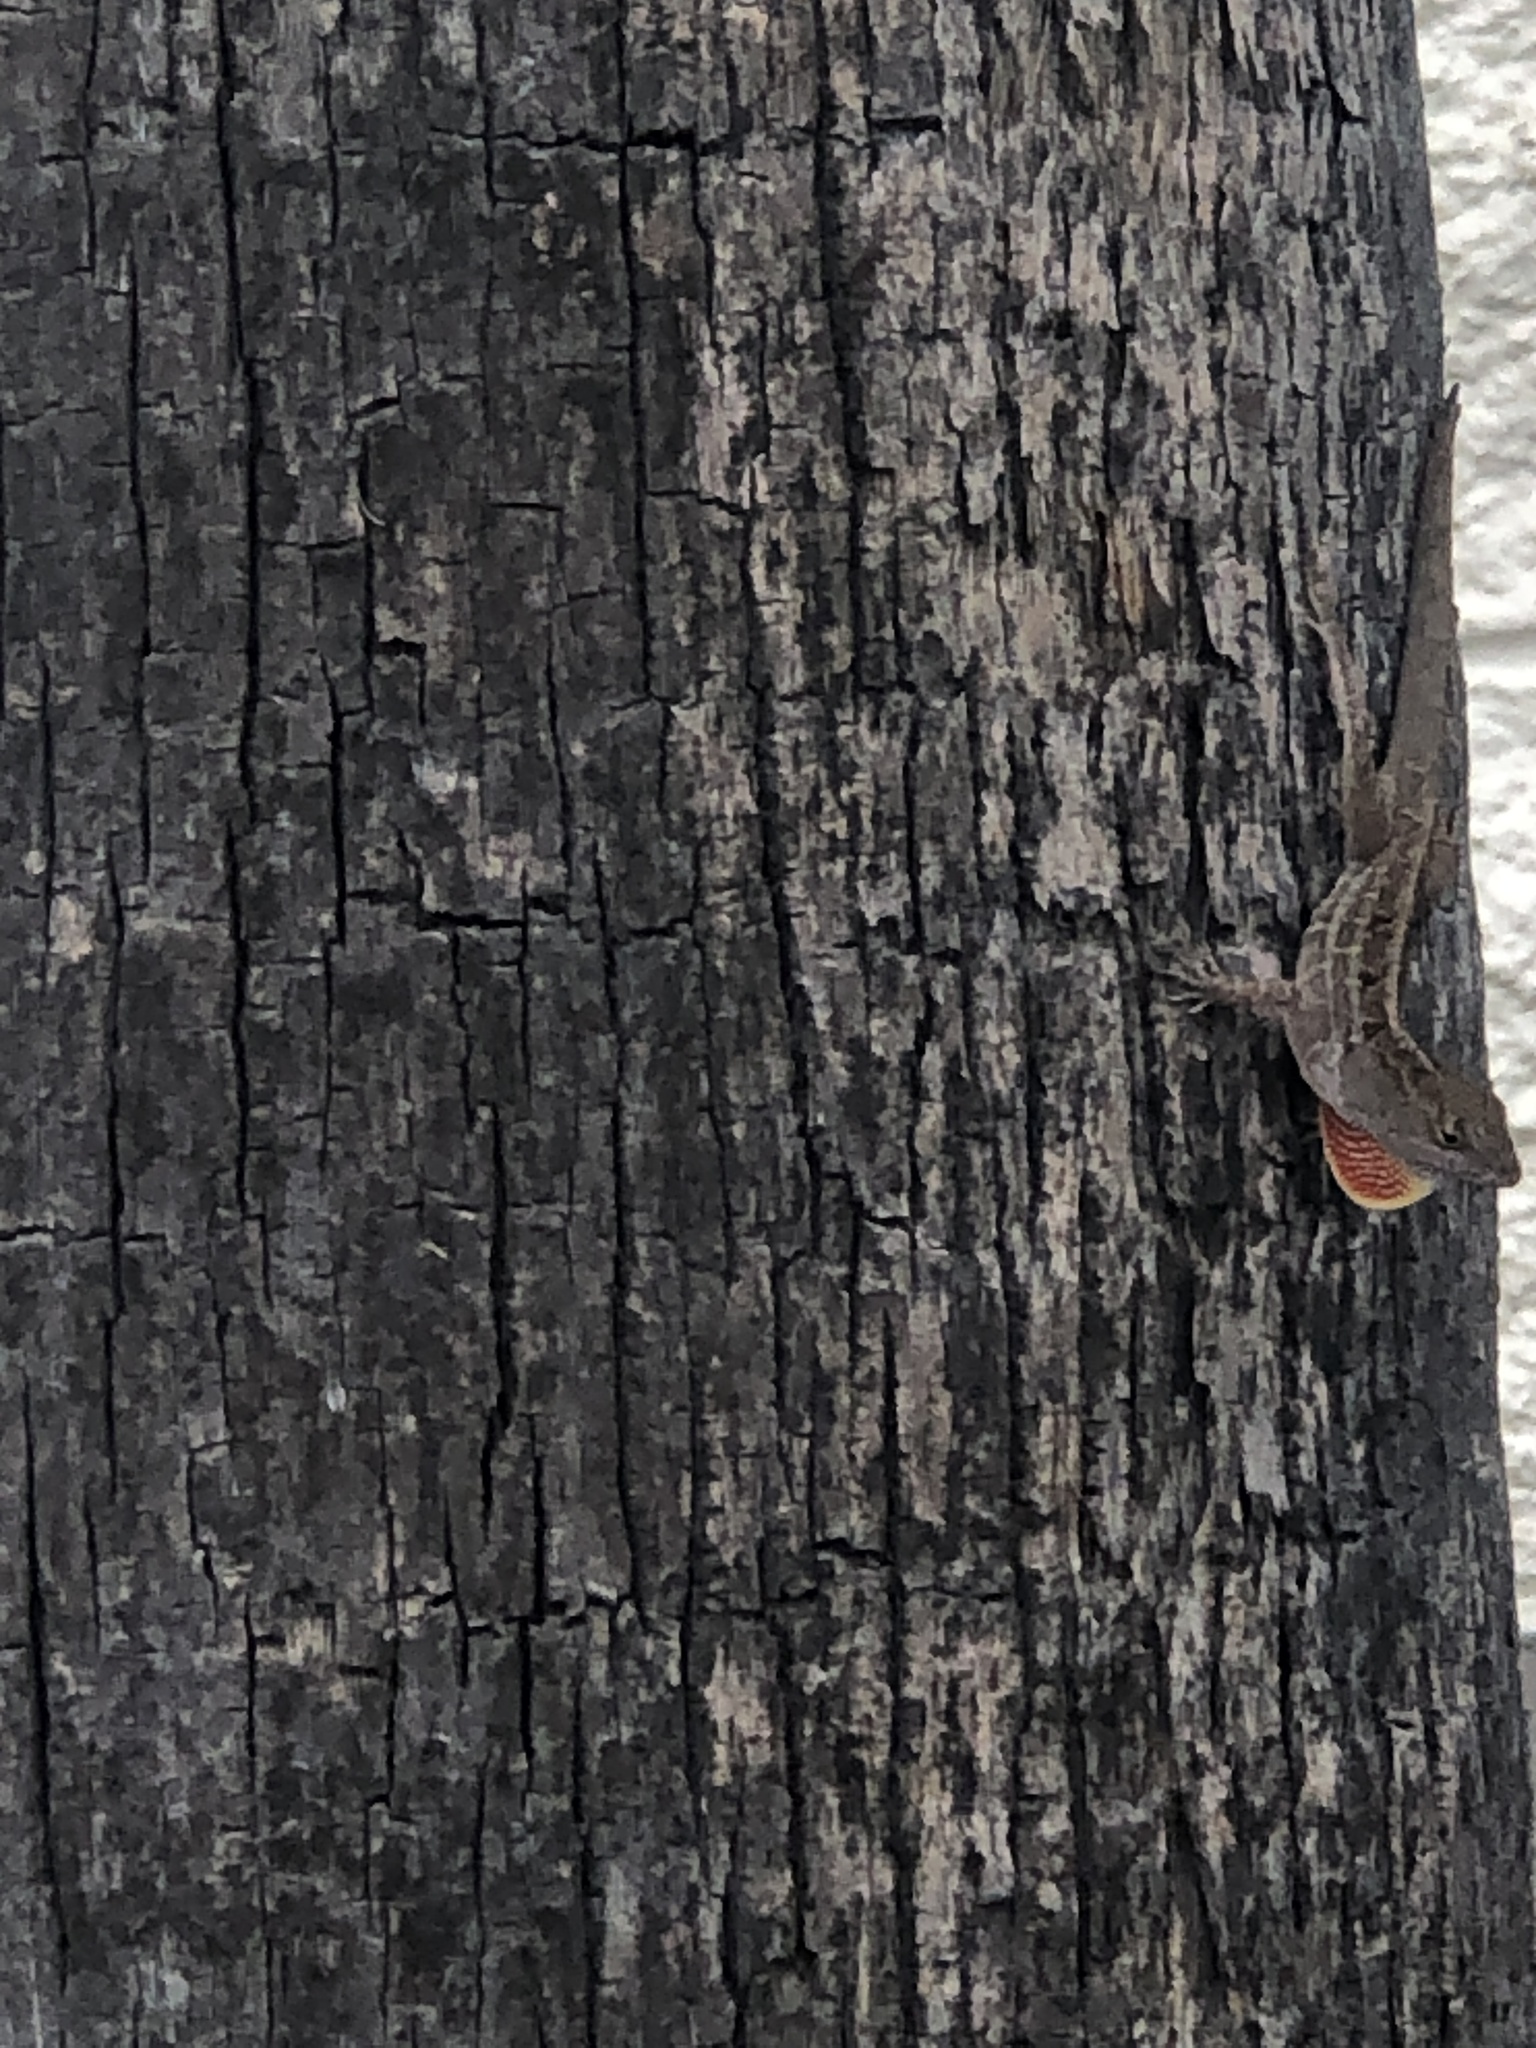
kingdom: Animalia
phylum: Chordata
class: Squamata
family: Dactyloidae
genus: Anolis
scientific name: Anolis sagrei
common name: Brown anole
